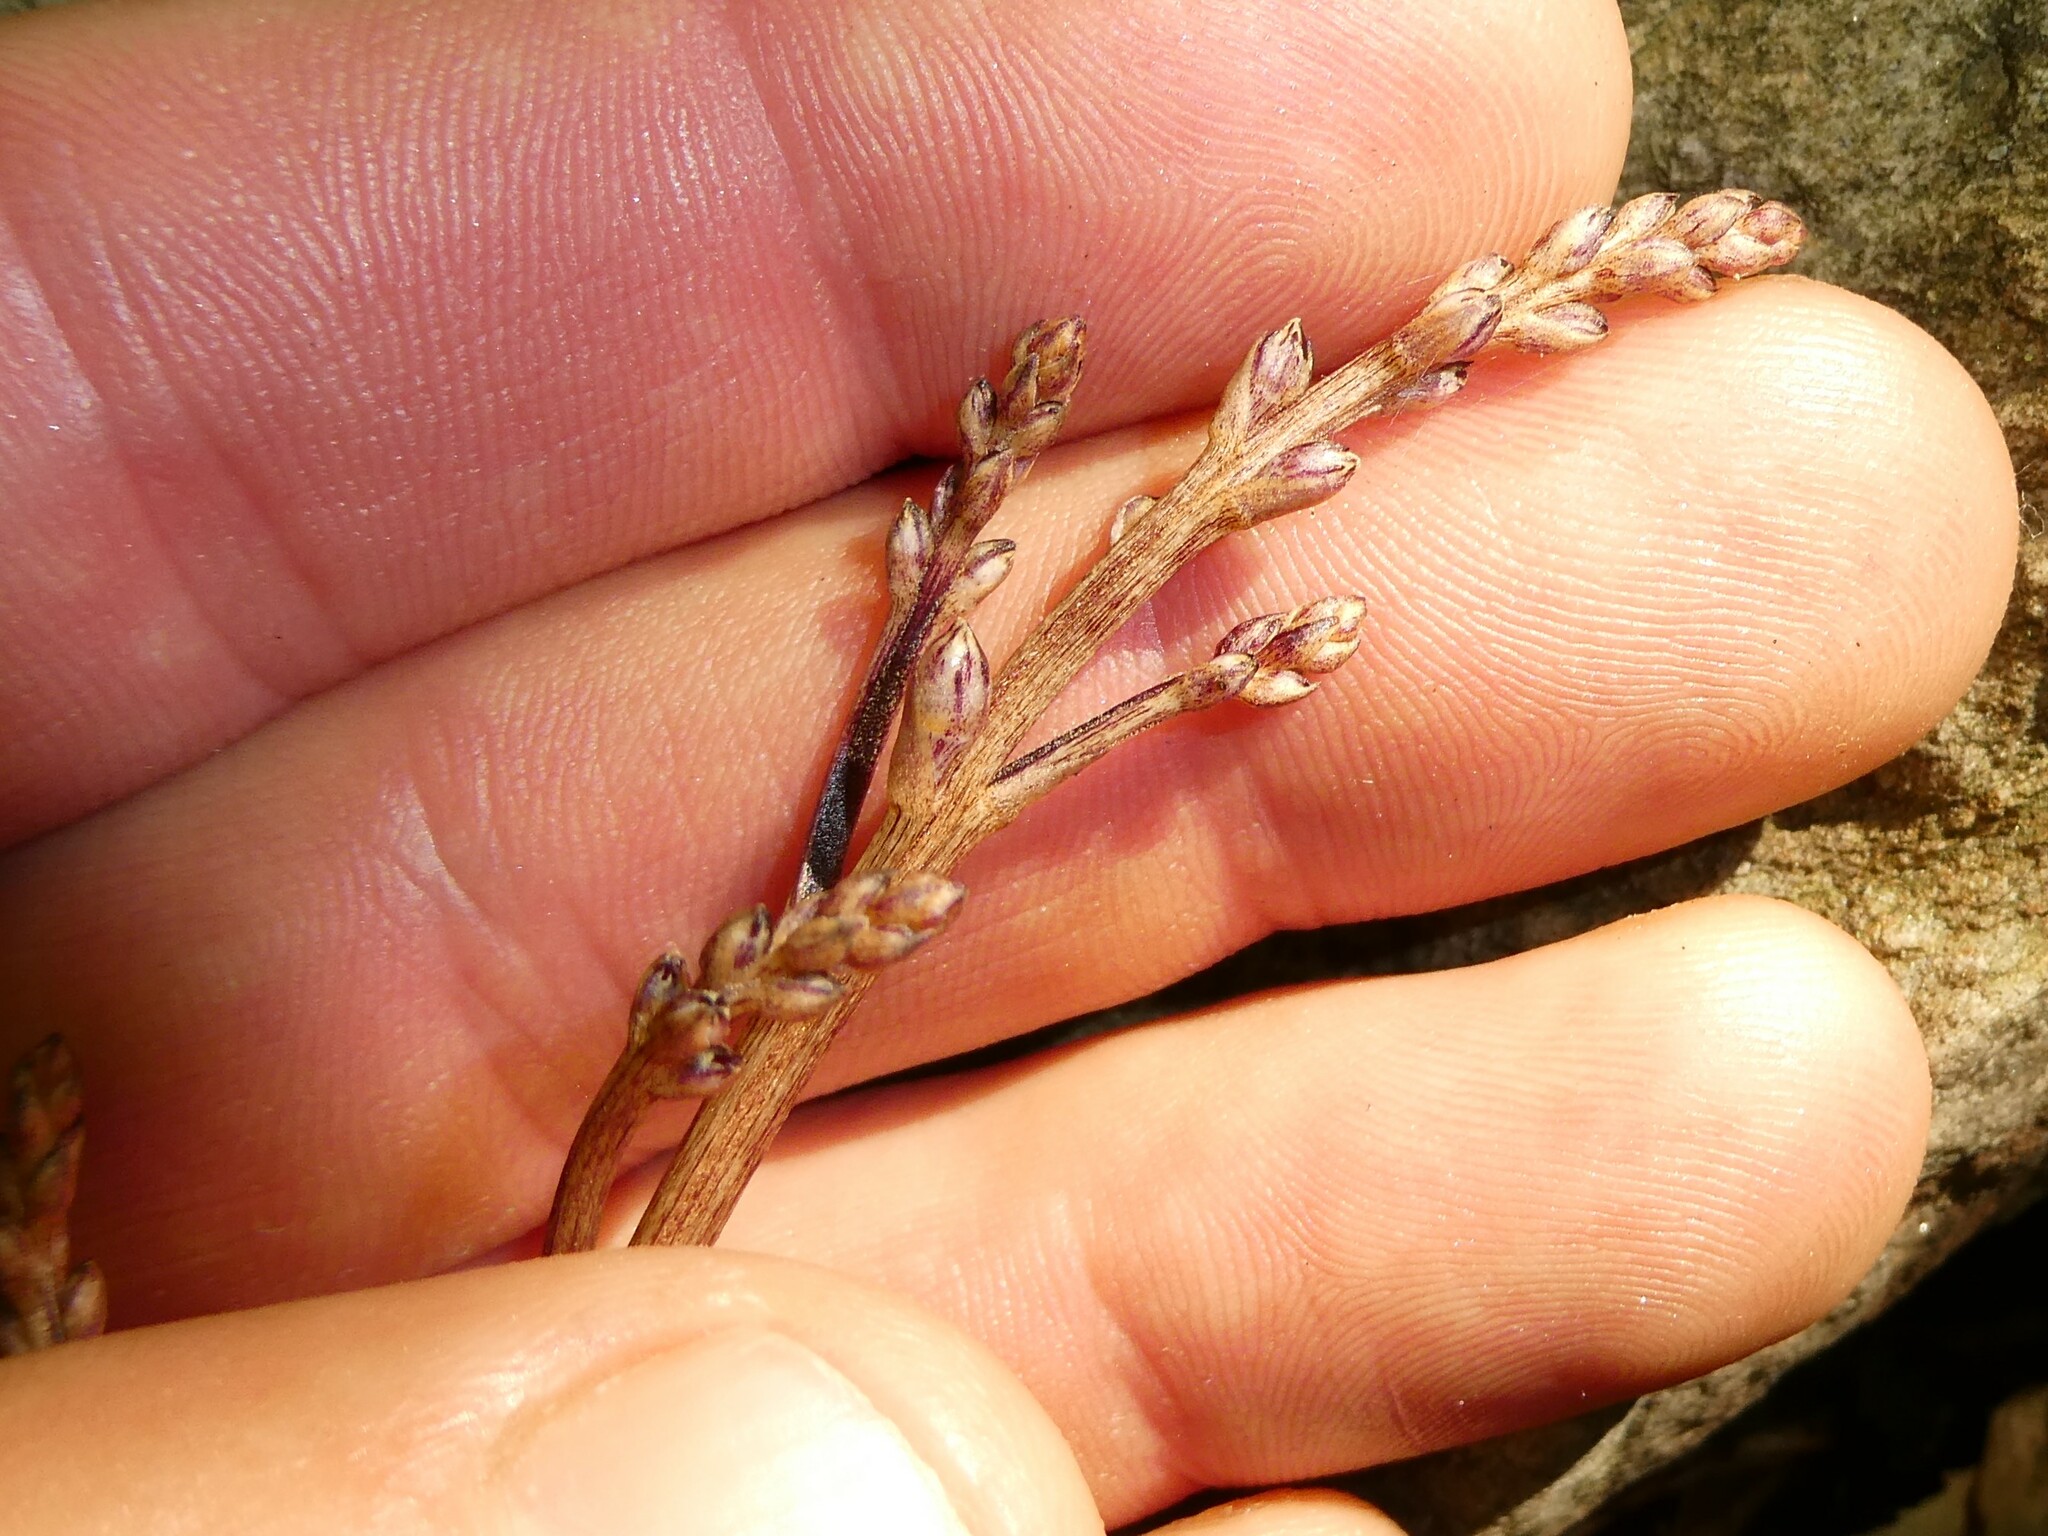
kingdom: Plantae
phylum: Tracheophyta
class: Magnoliopsida
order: Lamiales
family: Orobanchaceae
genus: Epifagus
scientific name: Epifagus virginiana
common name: Beechdrops
